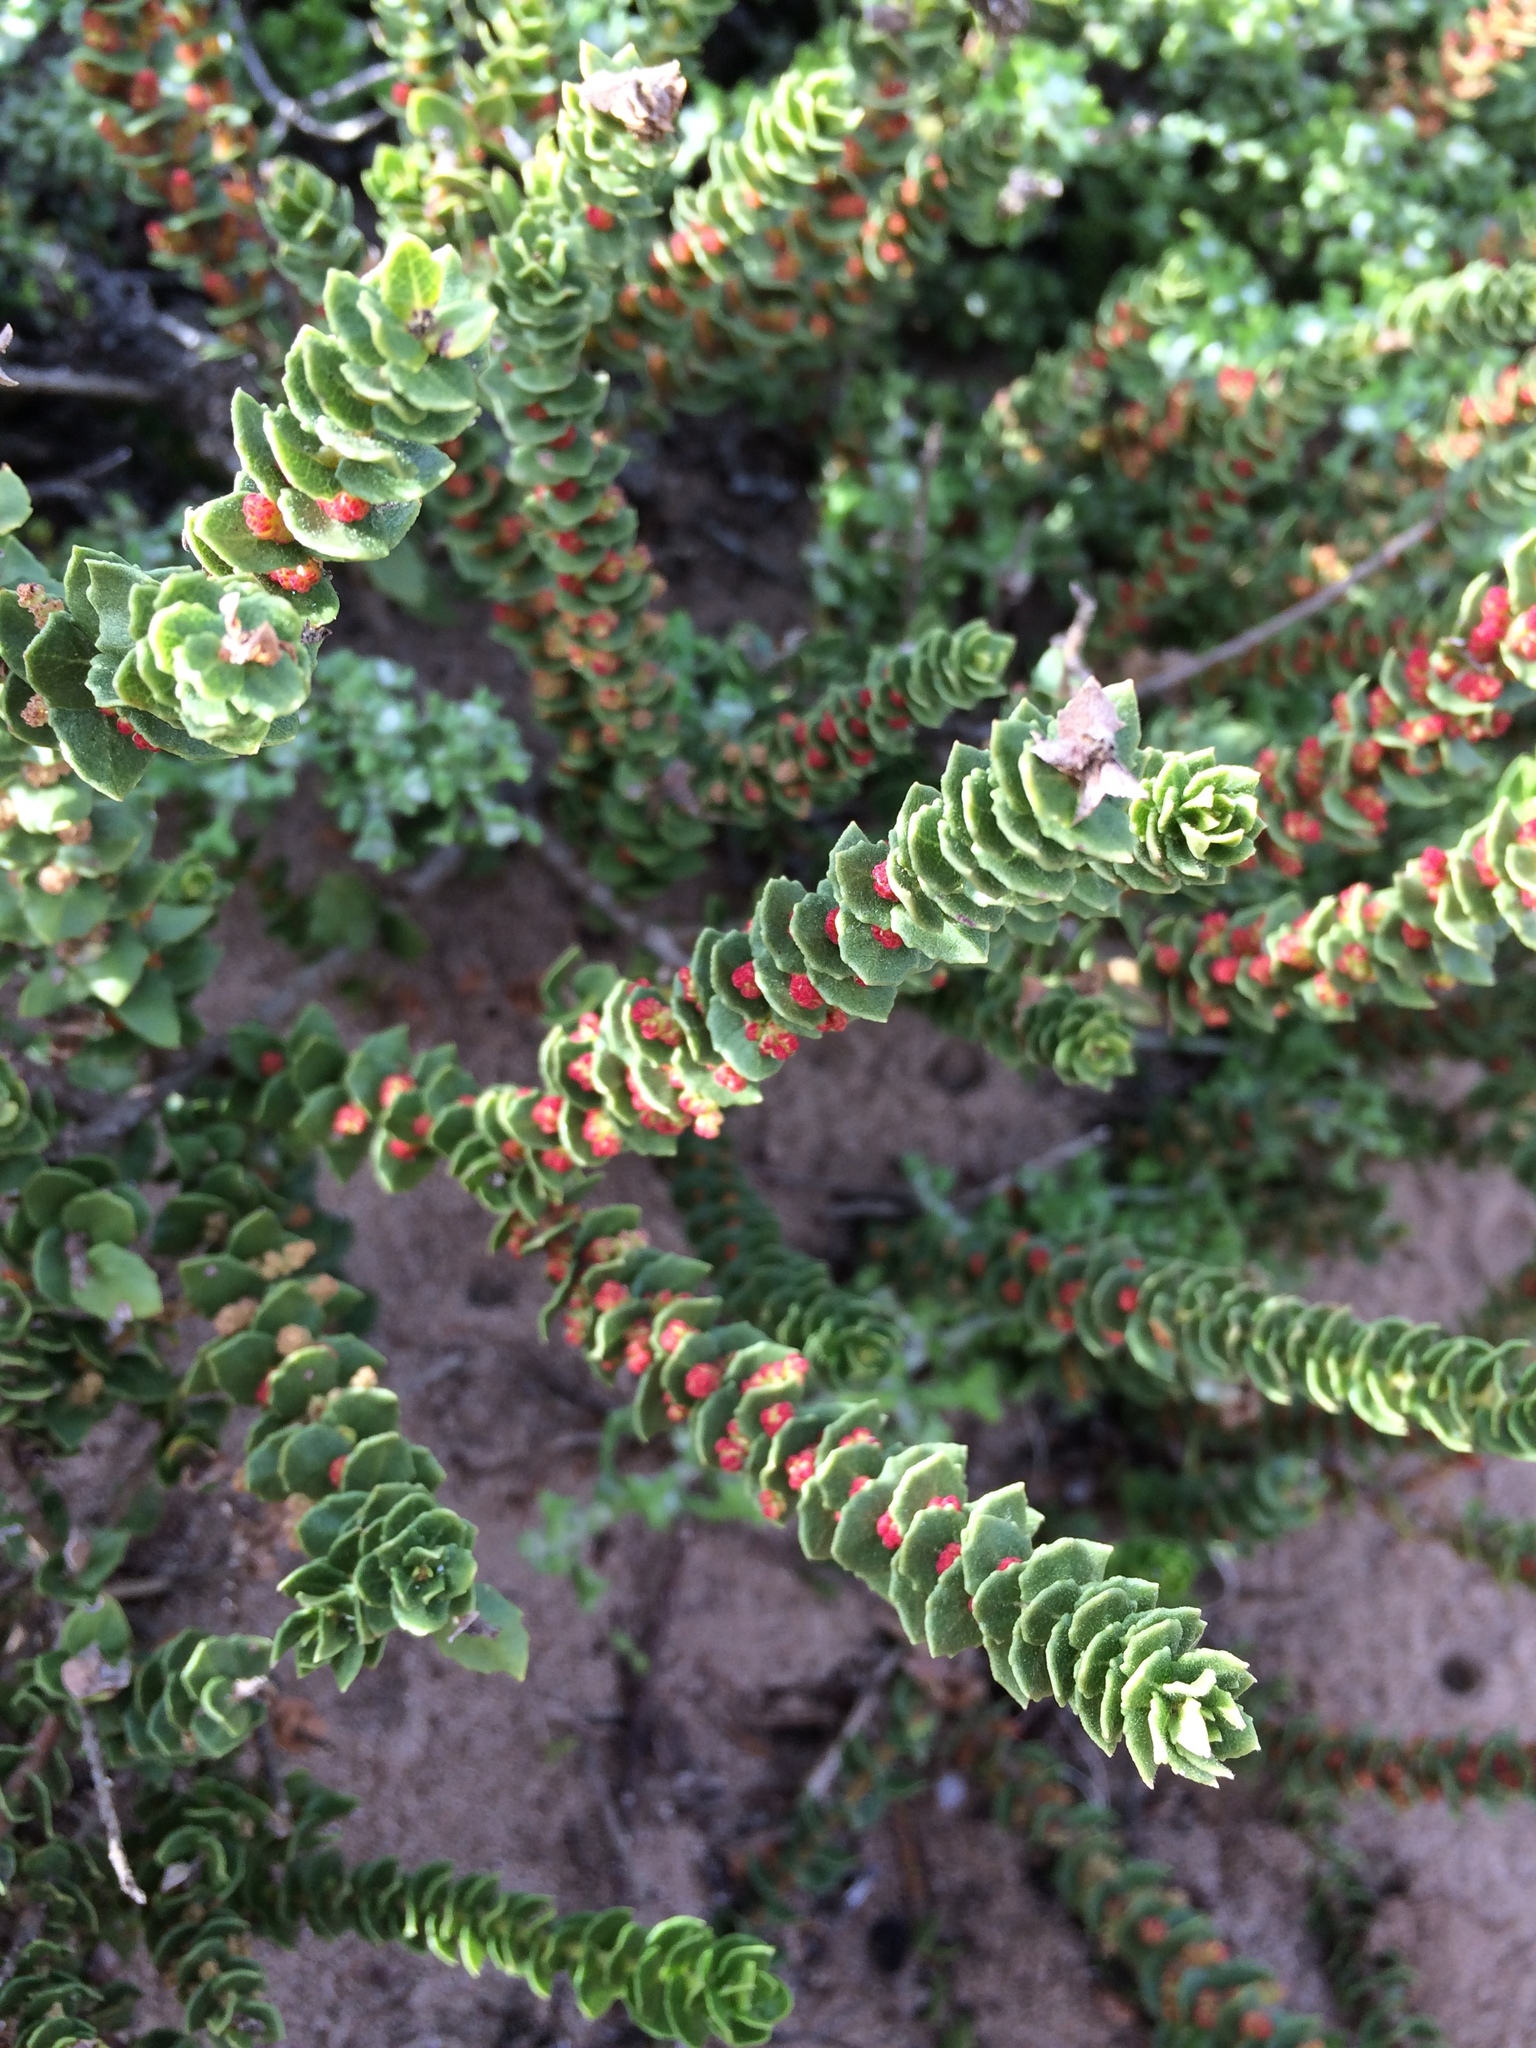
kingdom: Plantae
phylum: Tracheophyta
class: Magnoliopsida
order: Fagales
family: Myricaceae
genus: Morella
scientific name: Morella cordifolia
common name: Waxberry
